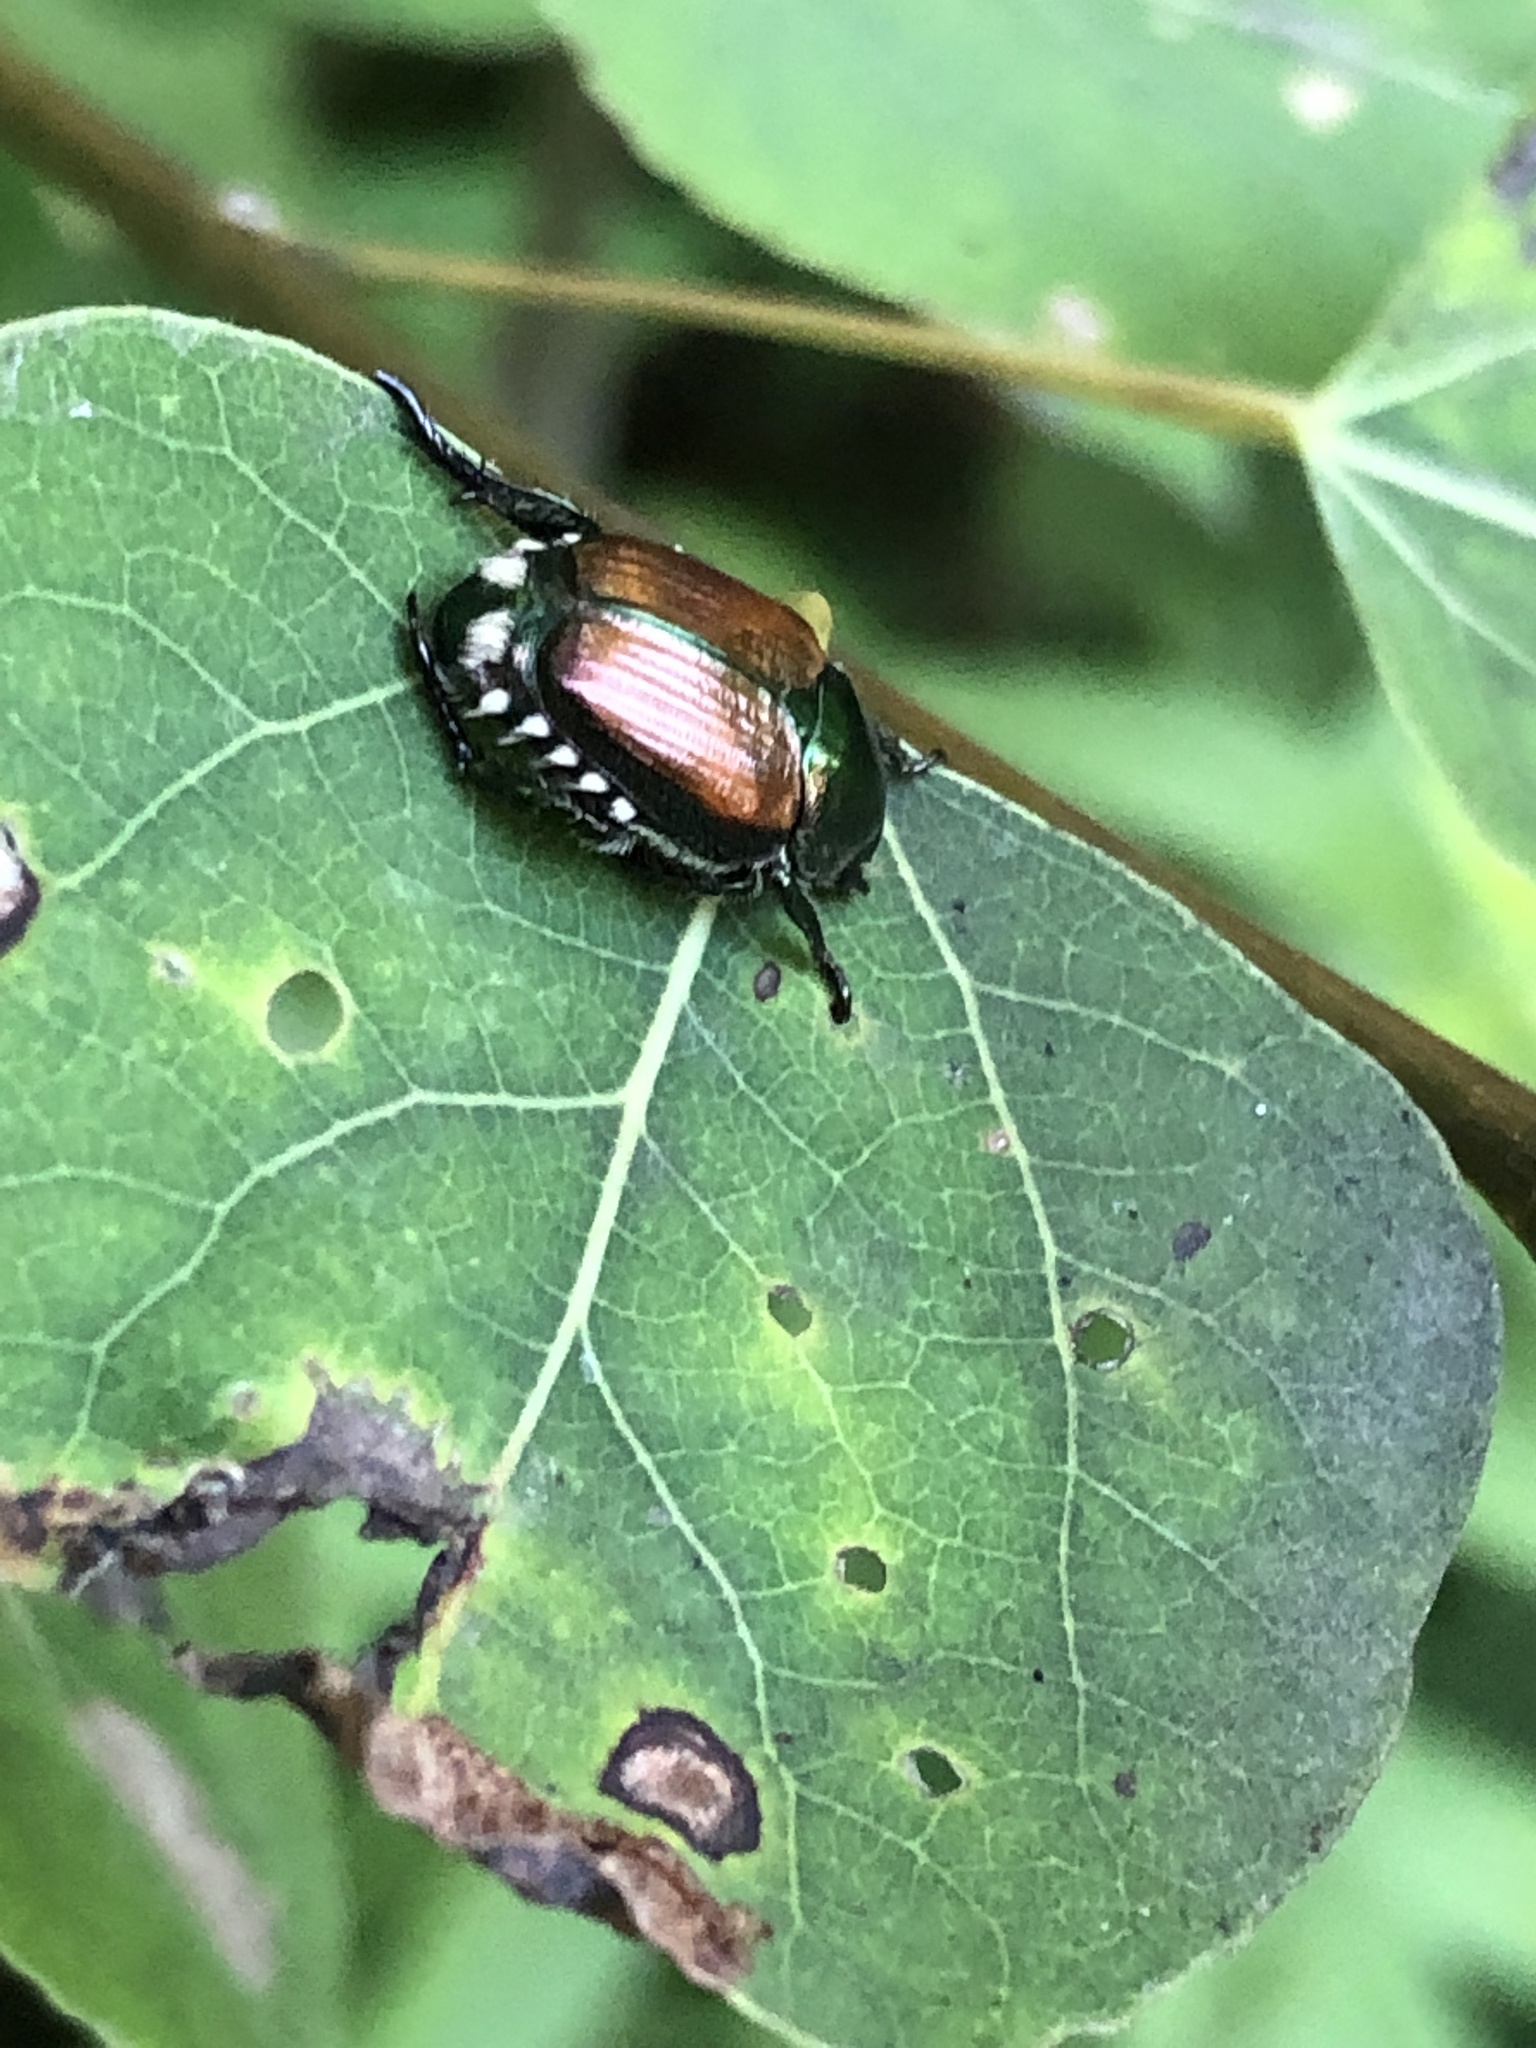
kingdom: Animalia
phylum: Arthropoda
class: Insecta
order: Coleoptera
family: Scarabaeidae
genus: Popillia
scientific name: Popillia japonica
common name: Japanese beetle
